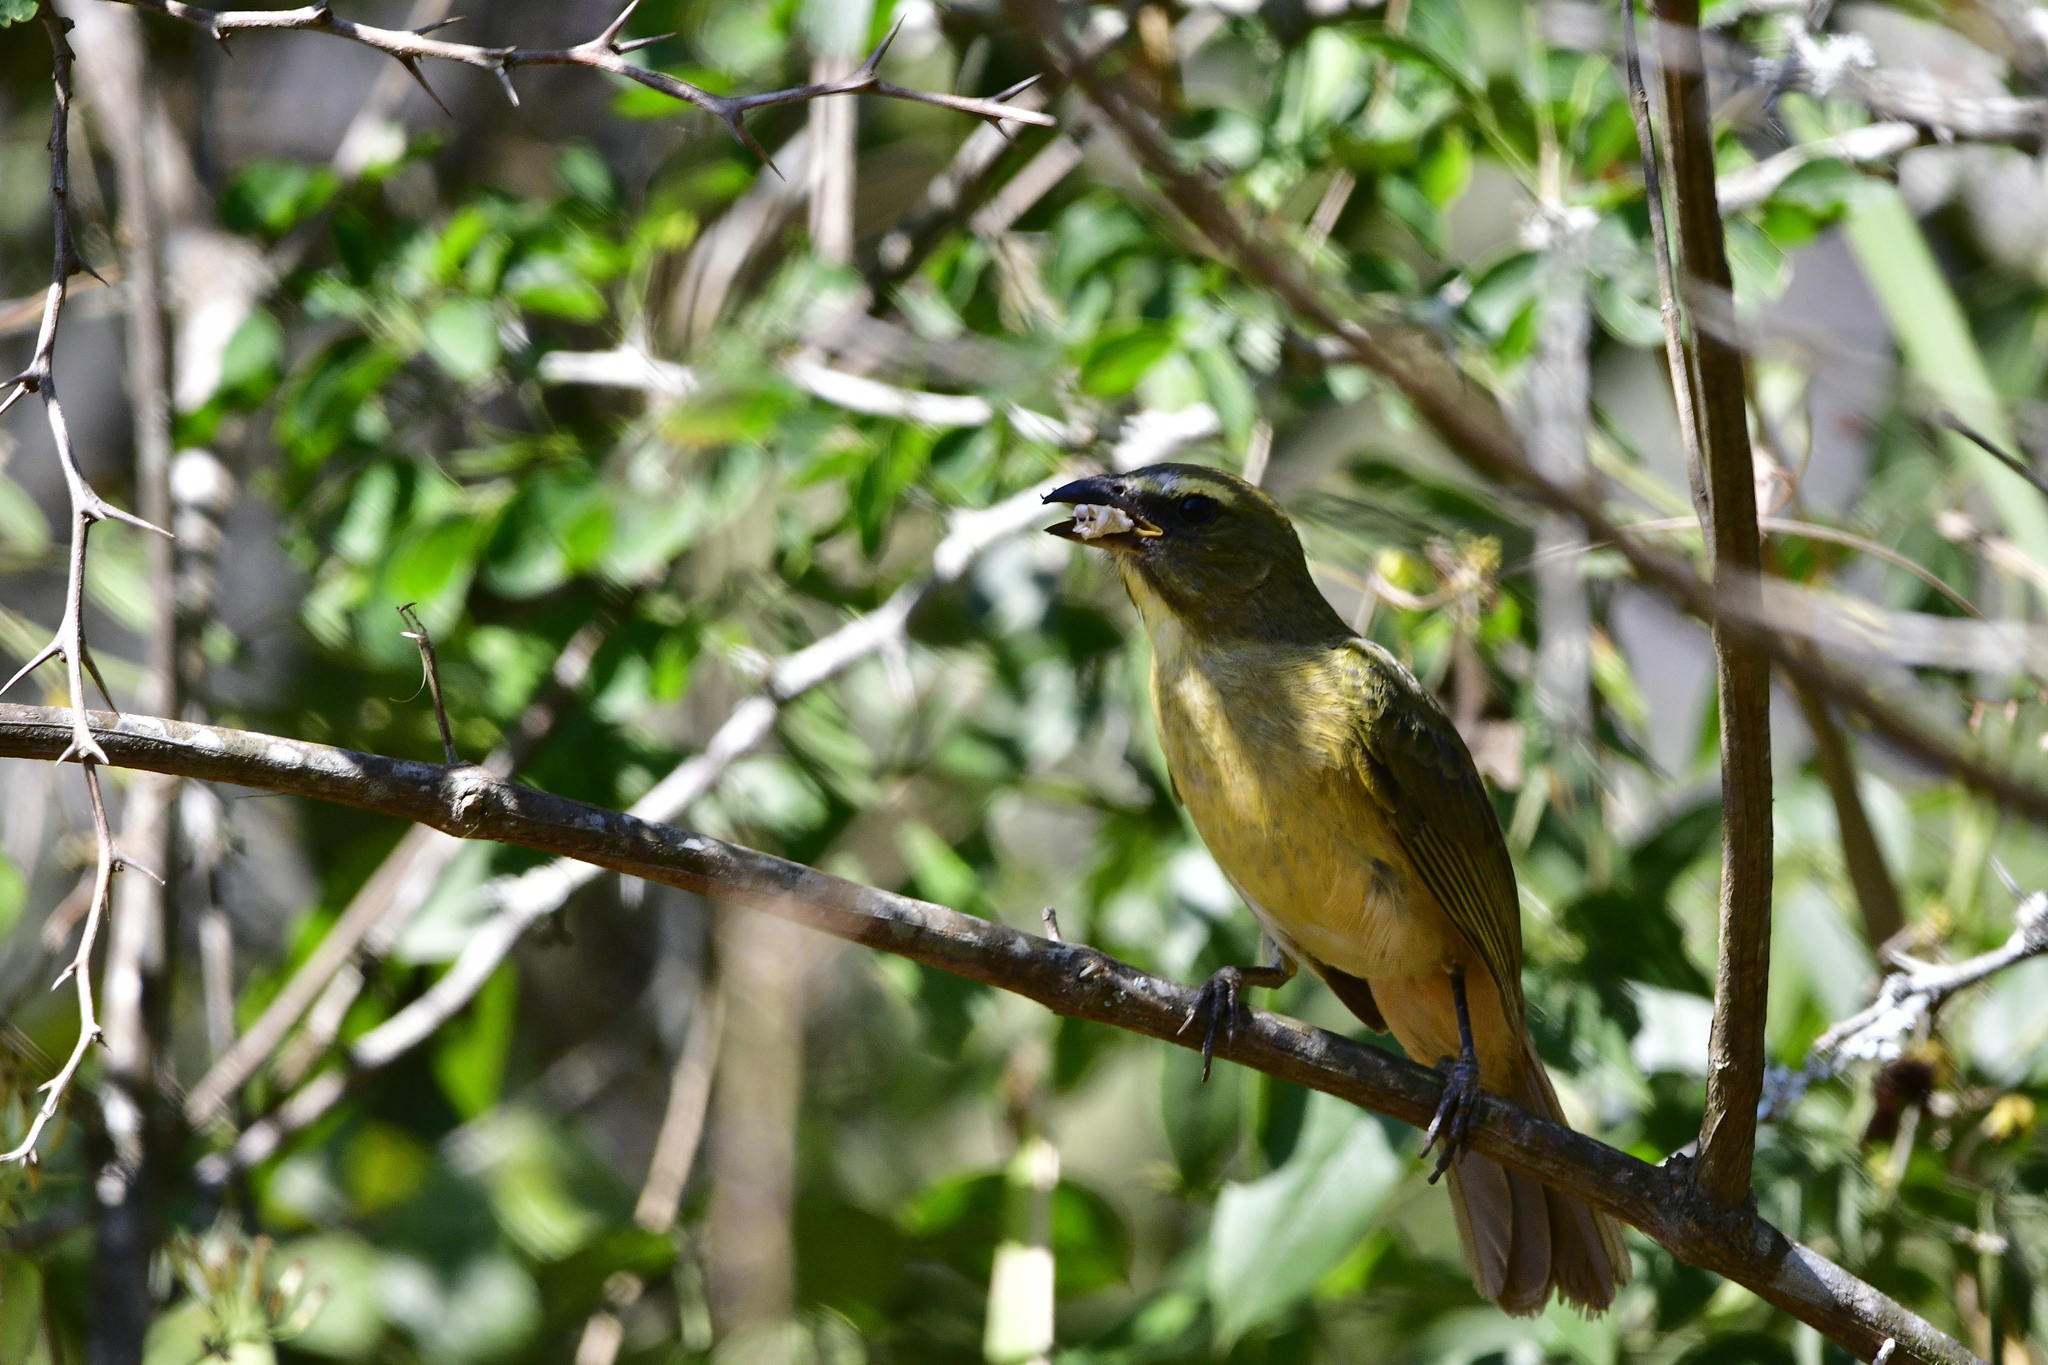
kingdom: Animalia
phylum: Chordata
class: Aves
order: Passeriformes
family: Thraupidae
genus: Saltator
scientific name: Saltator grandis
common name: Cinnamon-bellied saltator
